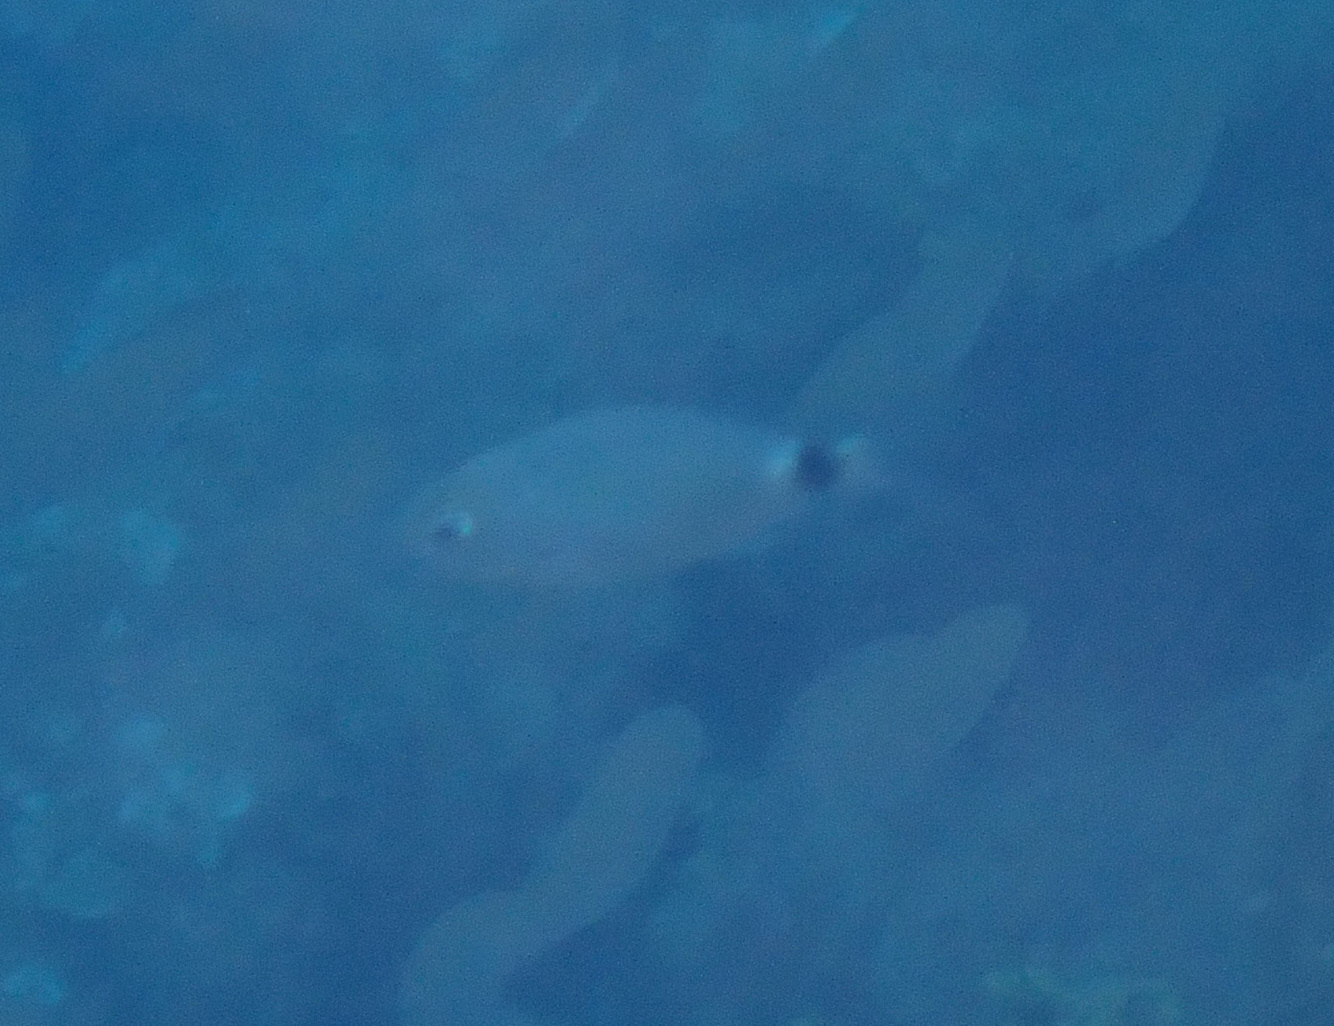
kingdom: Animalia
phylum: Chordata
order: Perciformes
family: Sparidae
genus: Oblada
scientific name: Oblada melanura
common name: Saddled seabream
